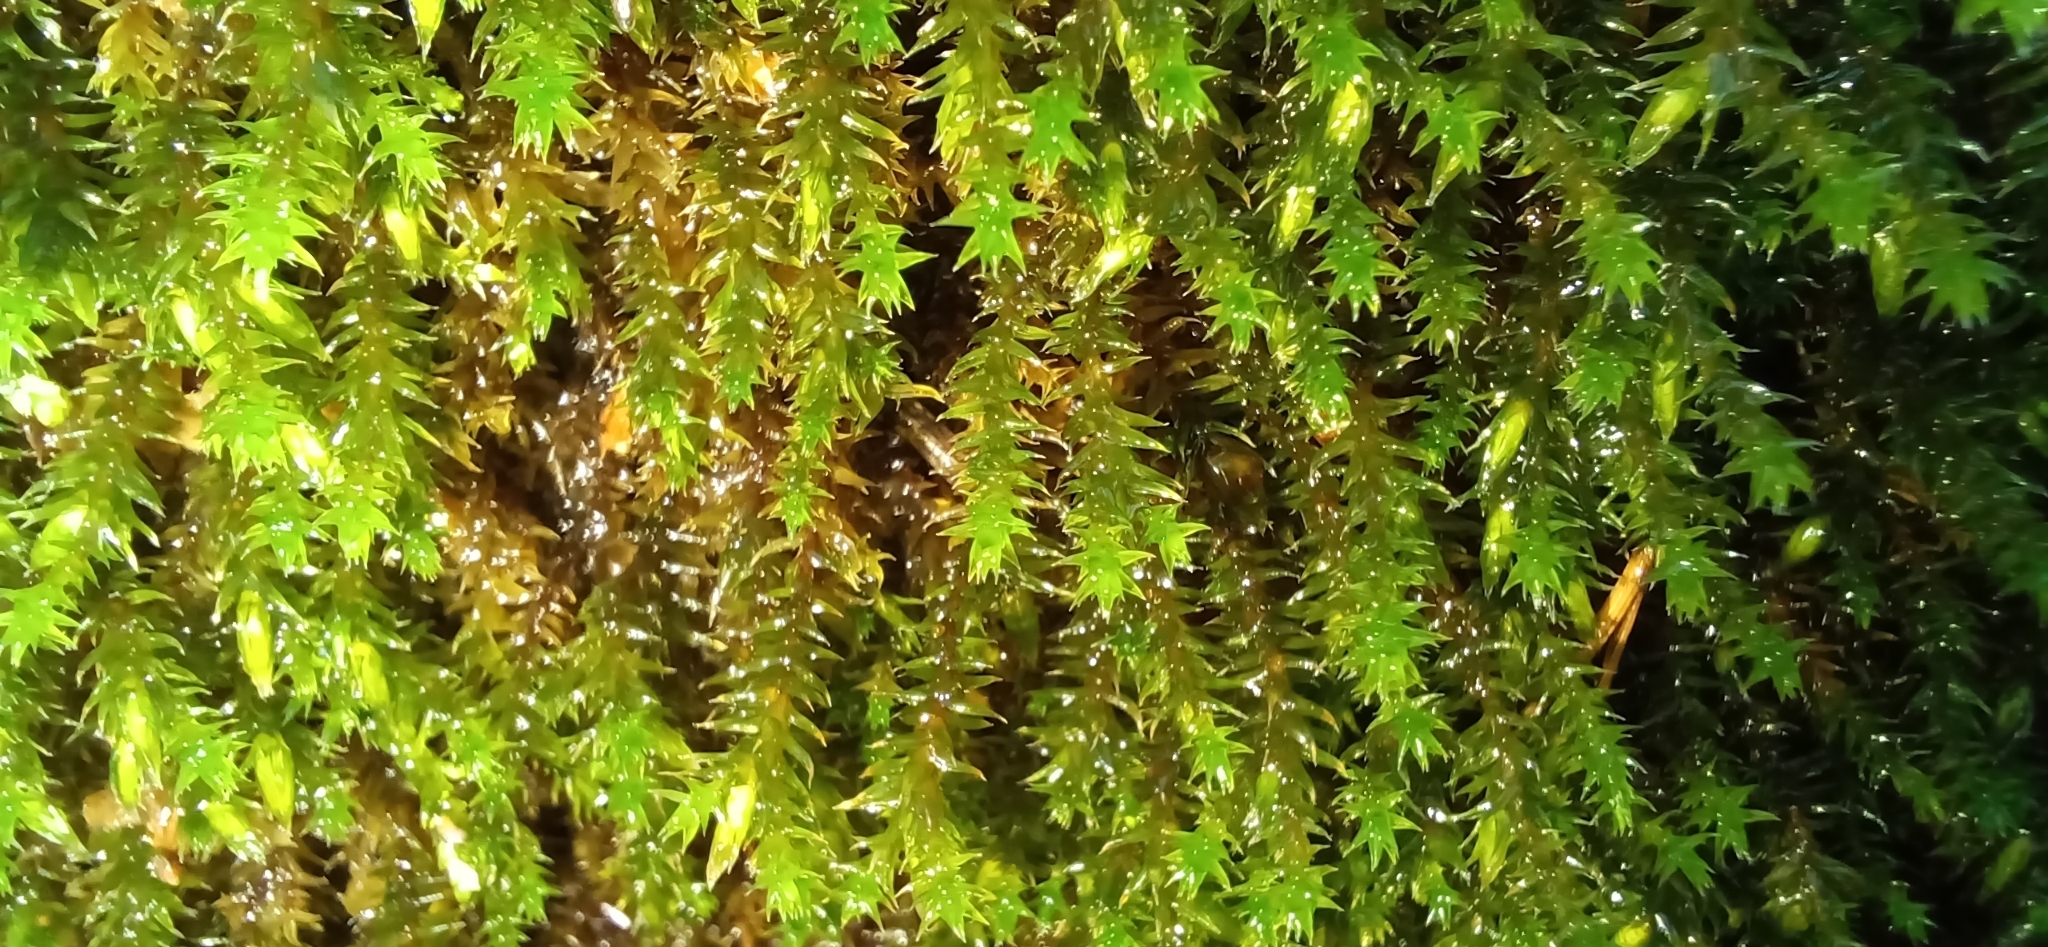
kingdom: Plantae
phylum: Bryophyta
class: Bryopsida
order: Hypnales
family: Anomodontaceae
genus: Anomodon
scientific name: Anomodon viticulosus
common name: Tall anomodon
